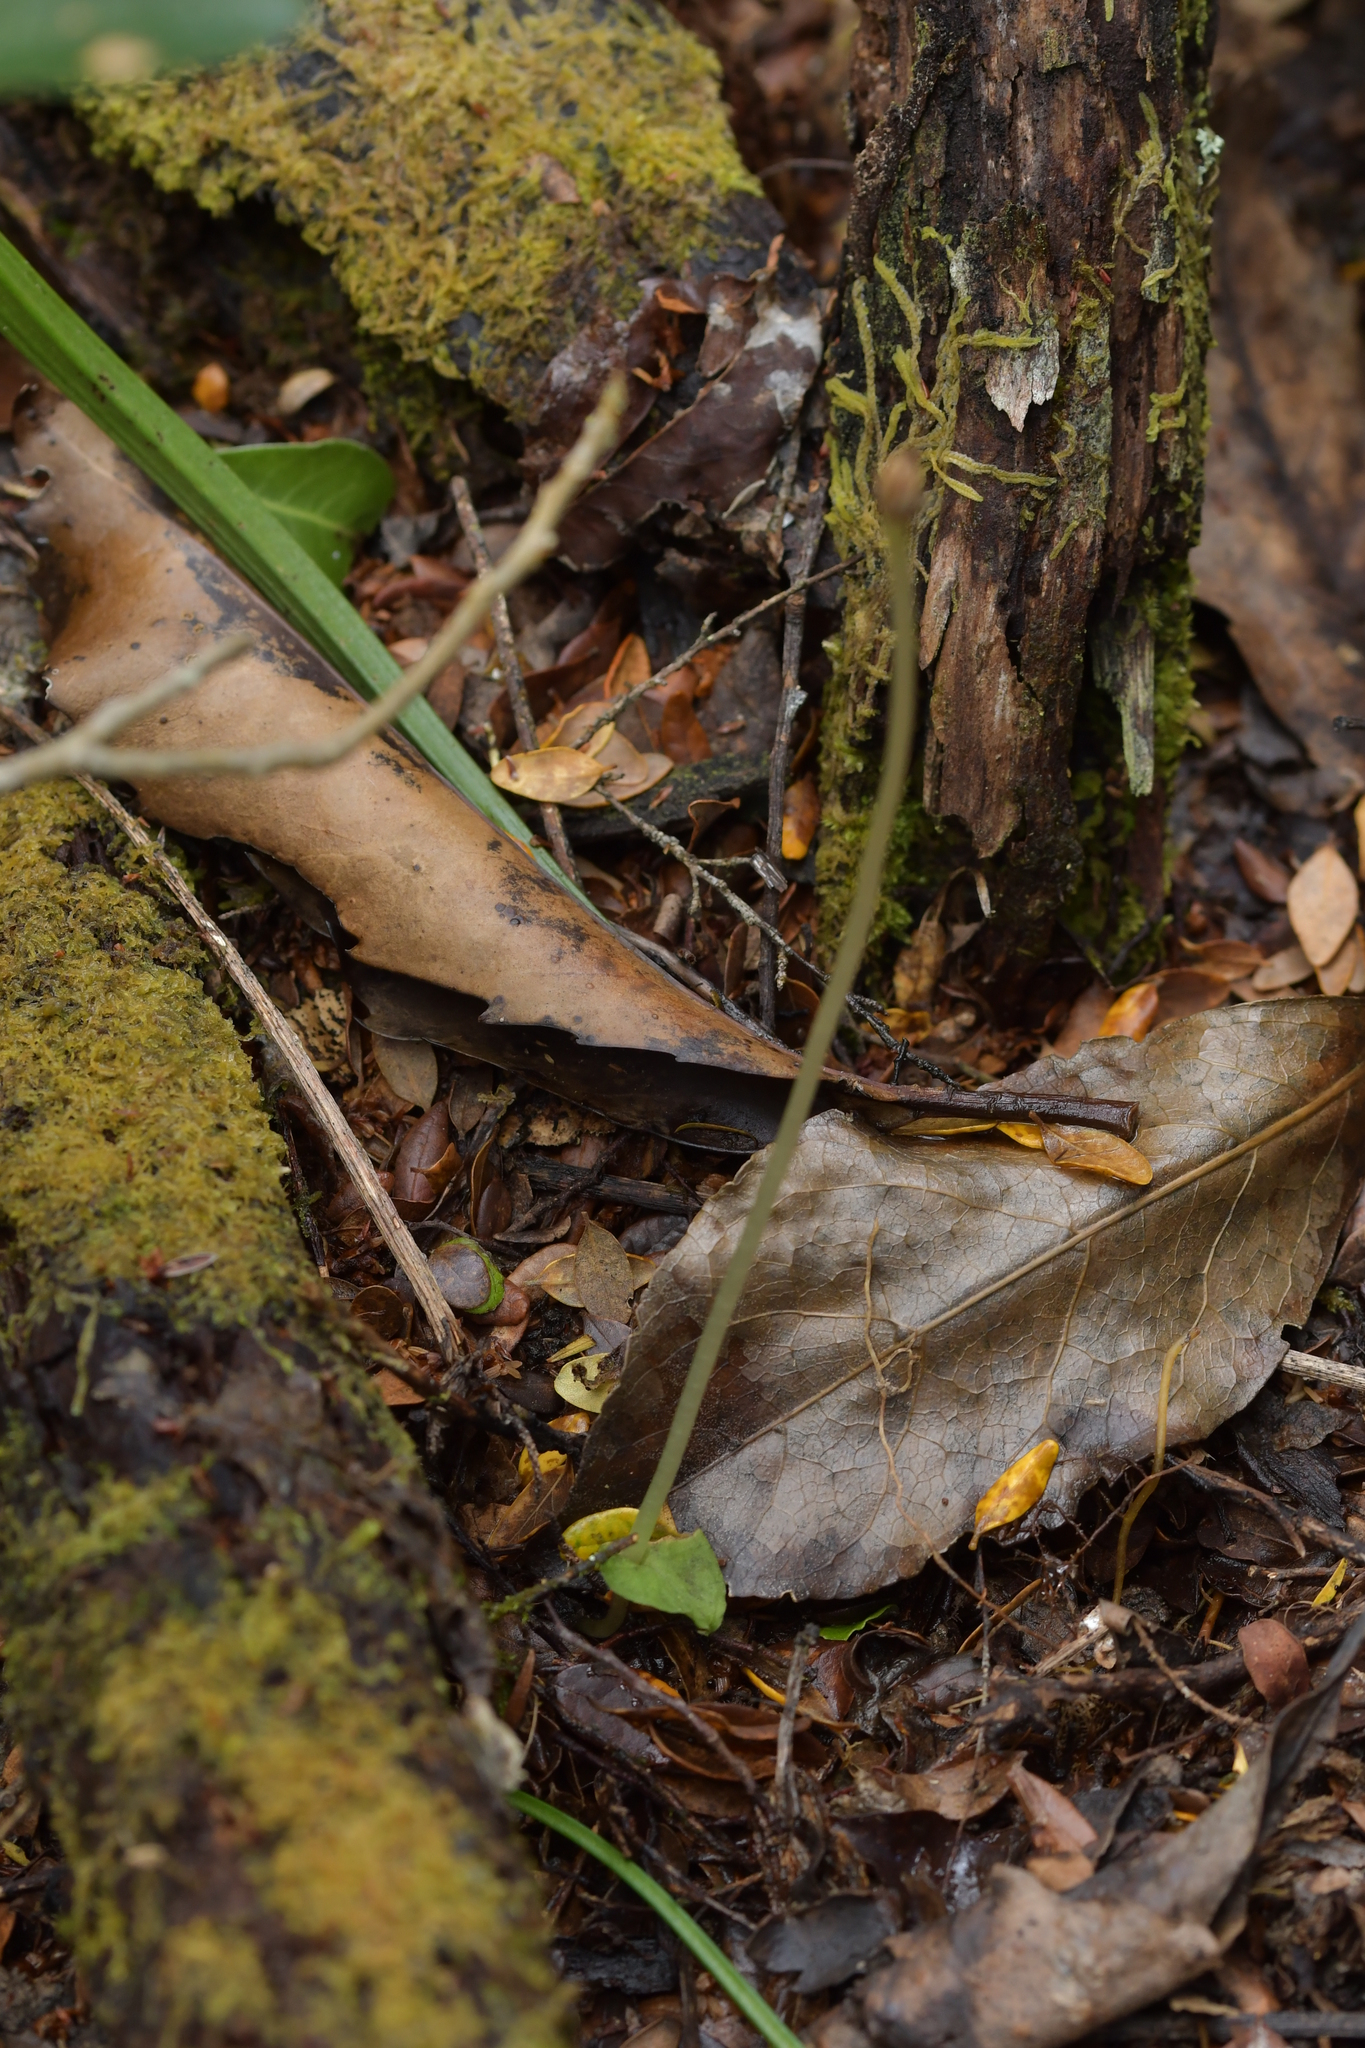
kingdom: Plantae
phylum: Tracheophyta
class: Liliopsida
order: Asparagales
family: Orchidaceae
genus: Corybas
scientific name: Corybas cheesemanii
